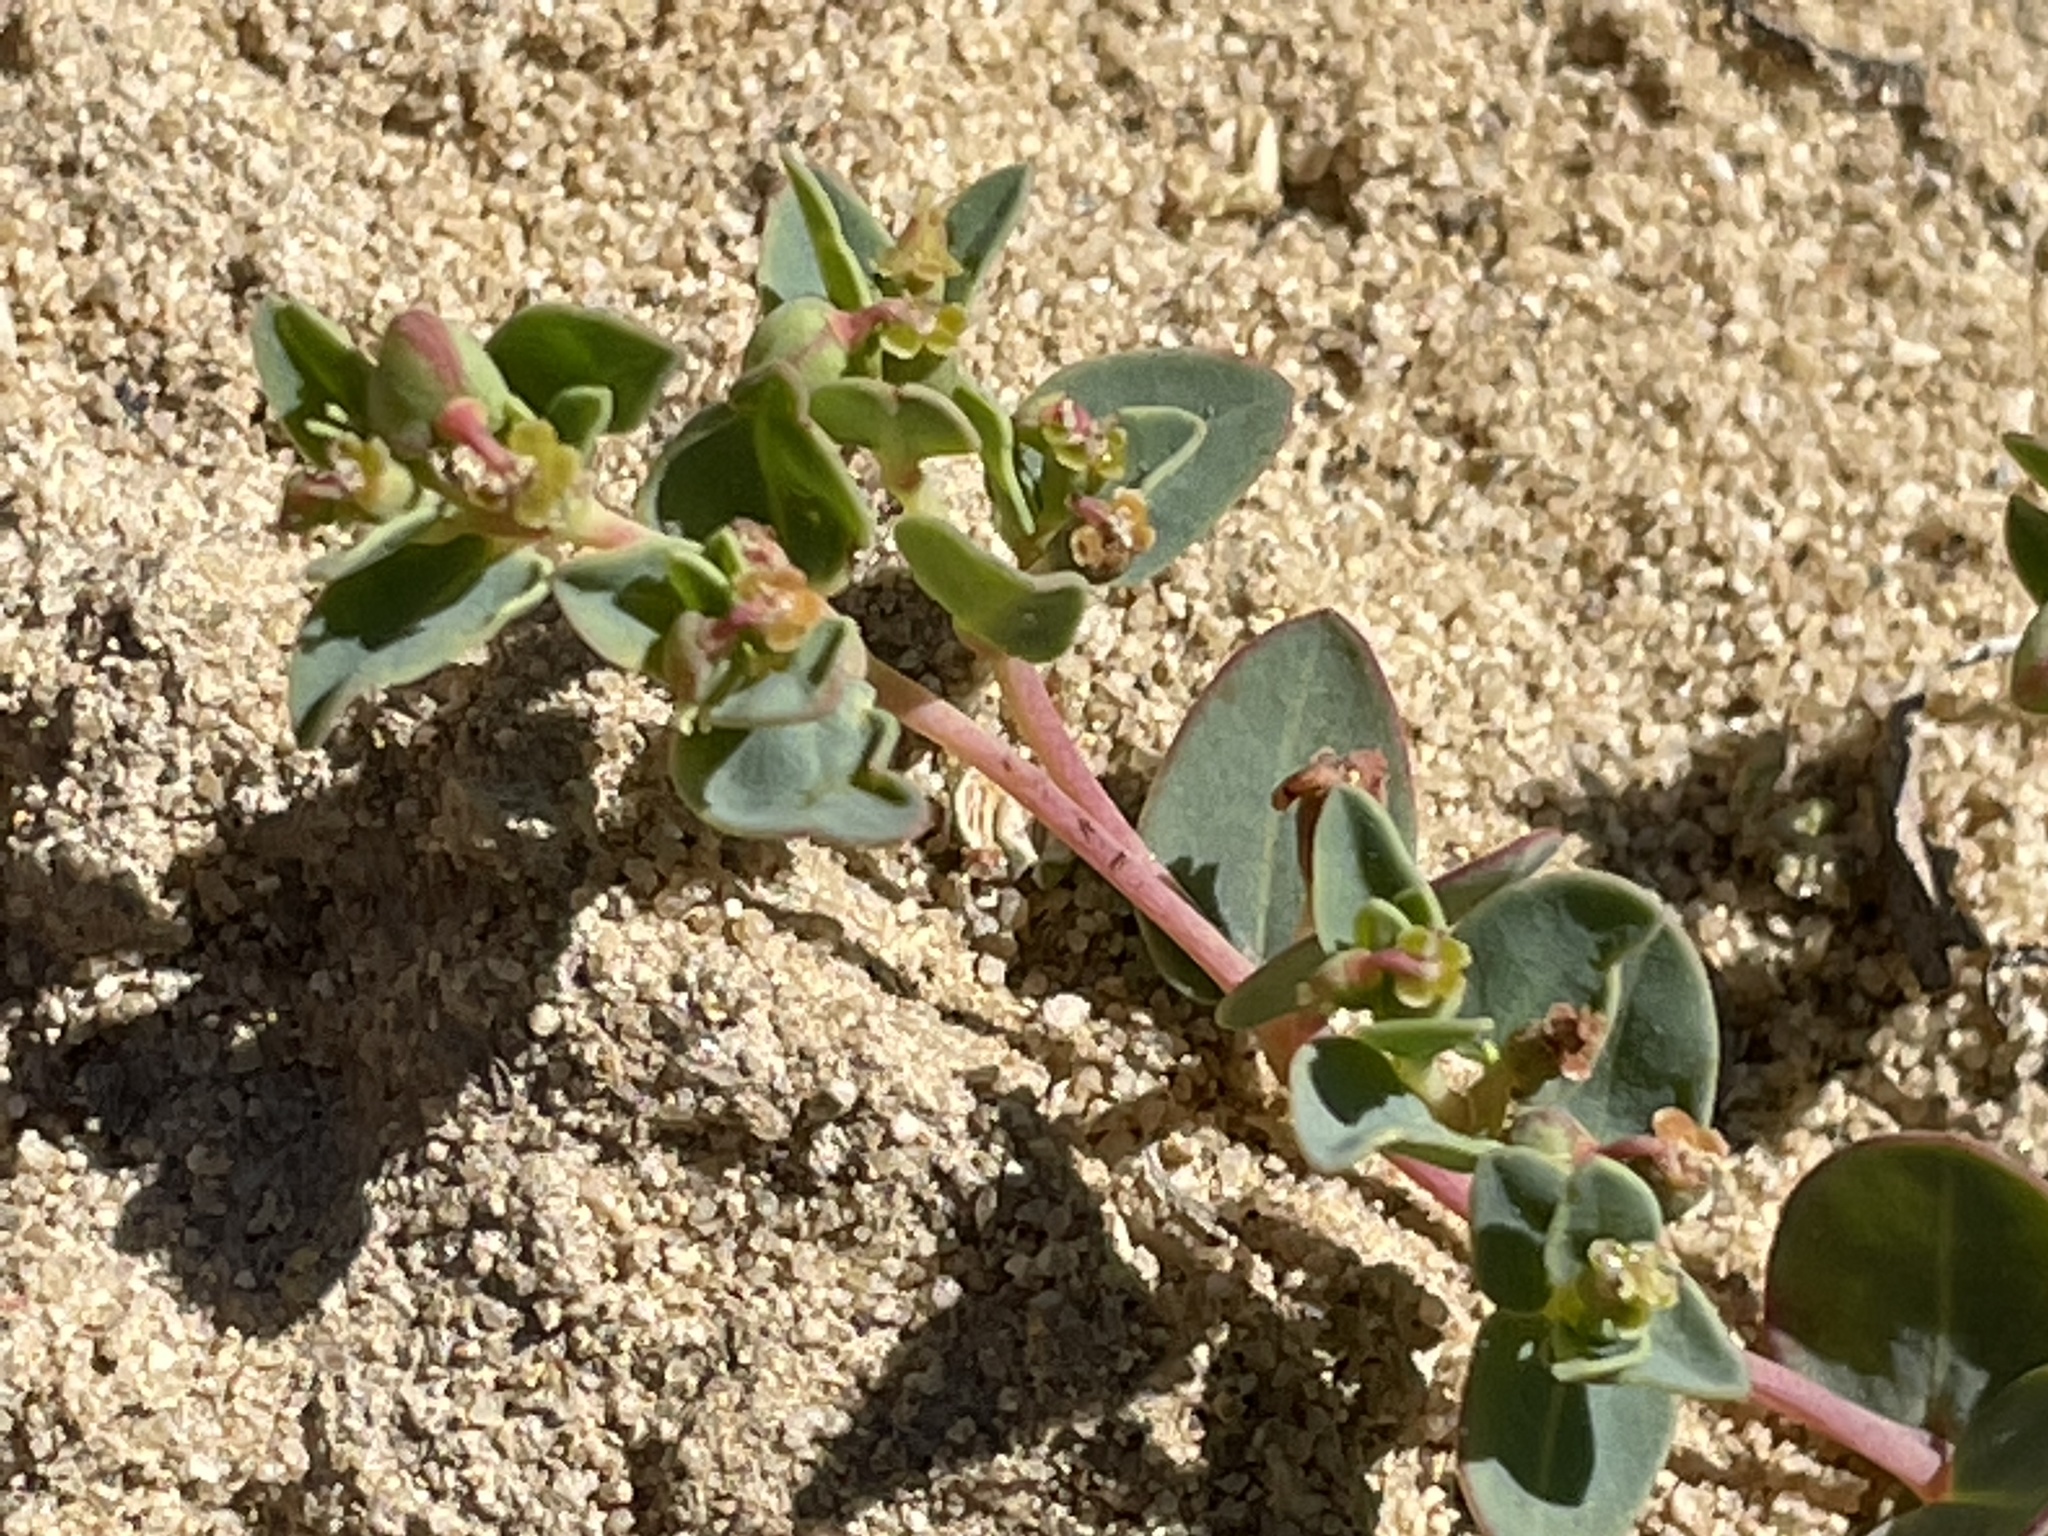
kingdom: Plantae
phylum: Tracheophyta
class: Magnoliopsida
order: Malpighiales
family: Euphorbiaceae
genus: Euphorbia
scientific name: Euphorbia fendleri
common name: Fendler's euphorbia
